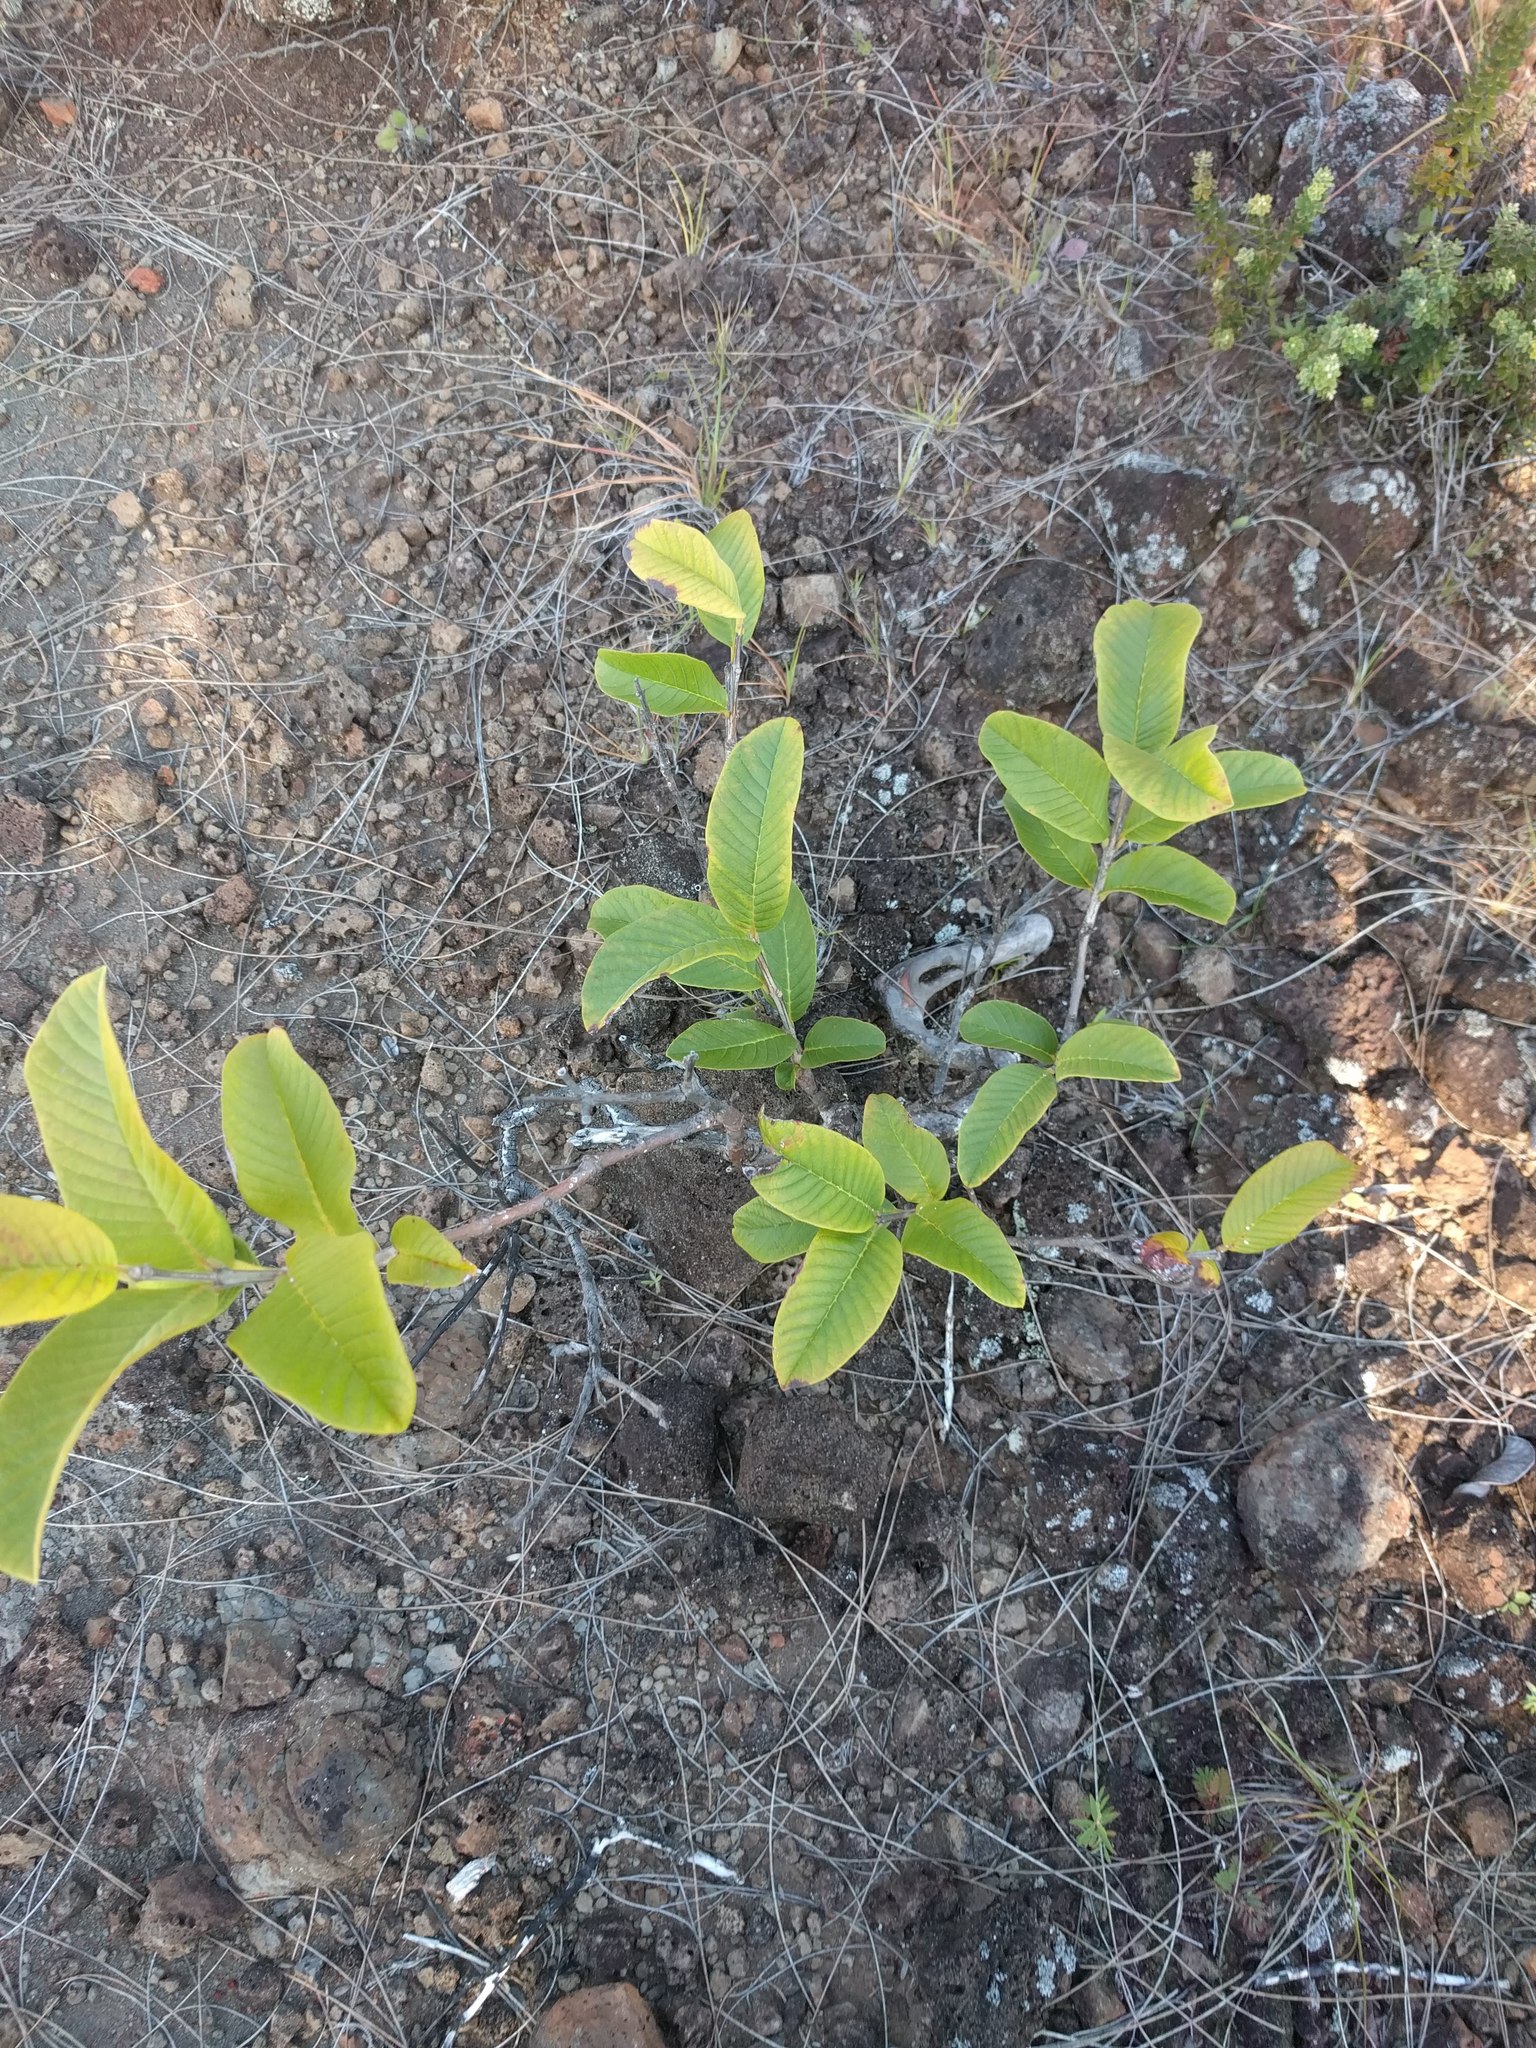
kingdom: Plantae
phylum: Tracheophyta
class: Magnoliopsida
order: Myrtales
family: Myrtaceae
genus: Psidium
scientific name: Psidium guajava
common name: Guava
